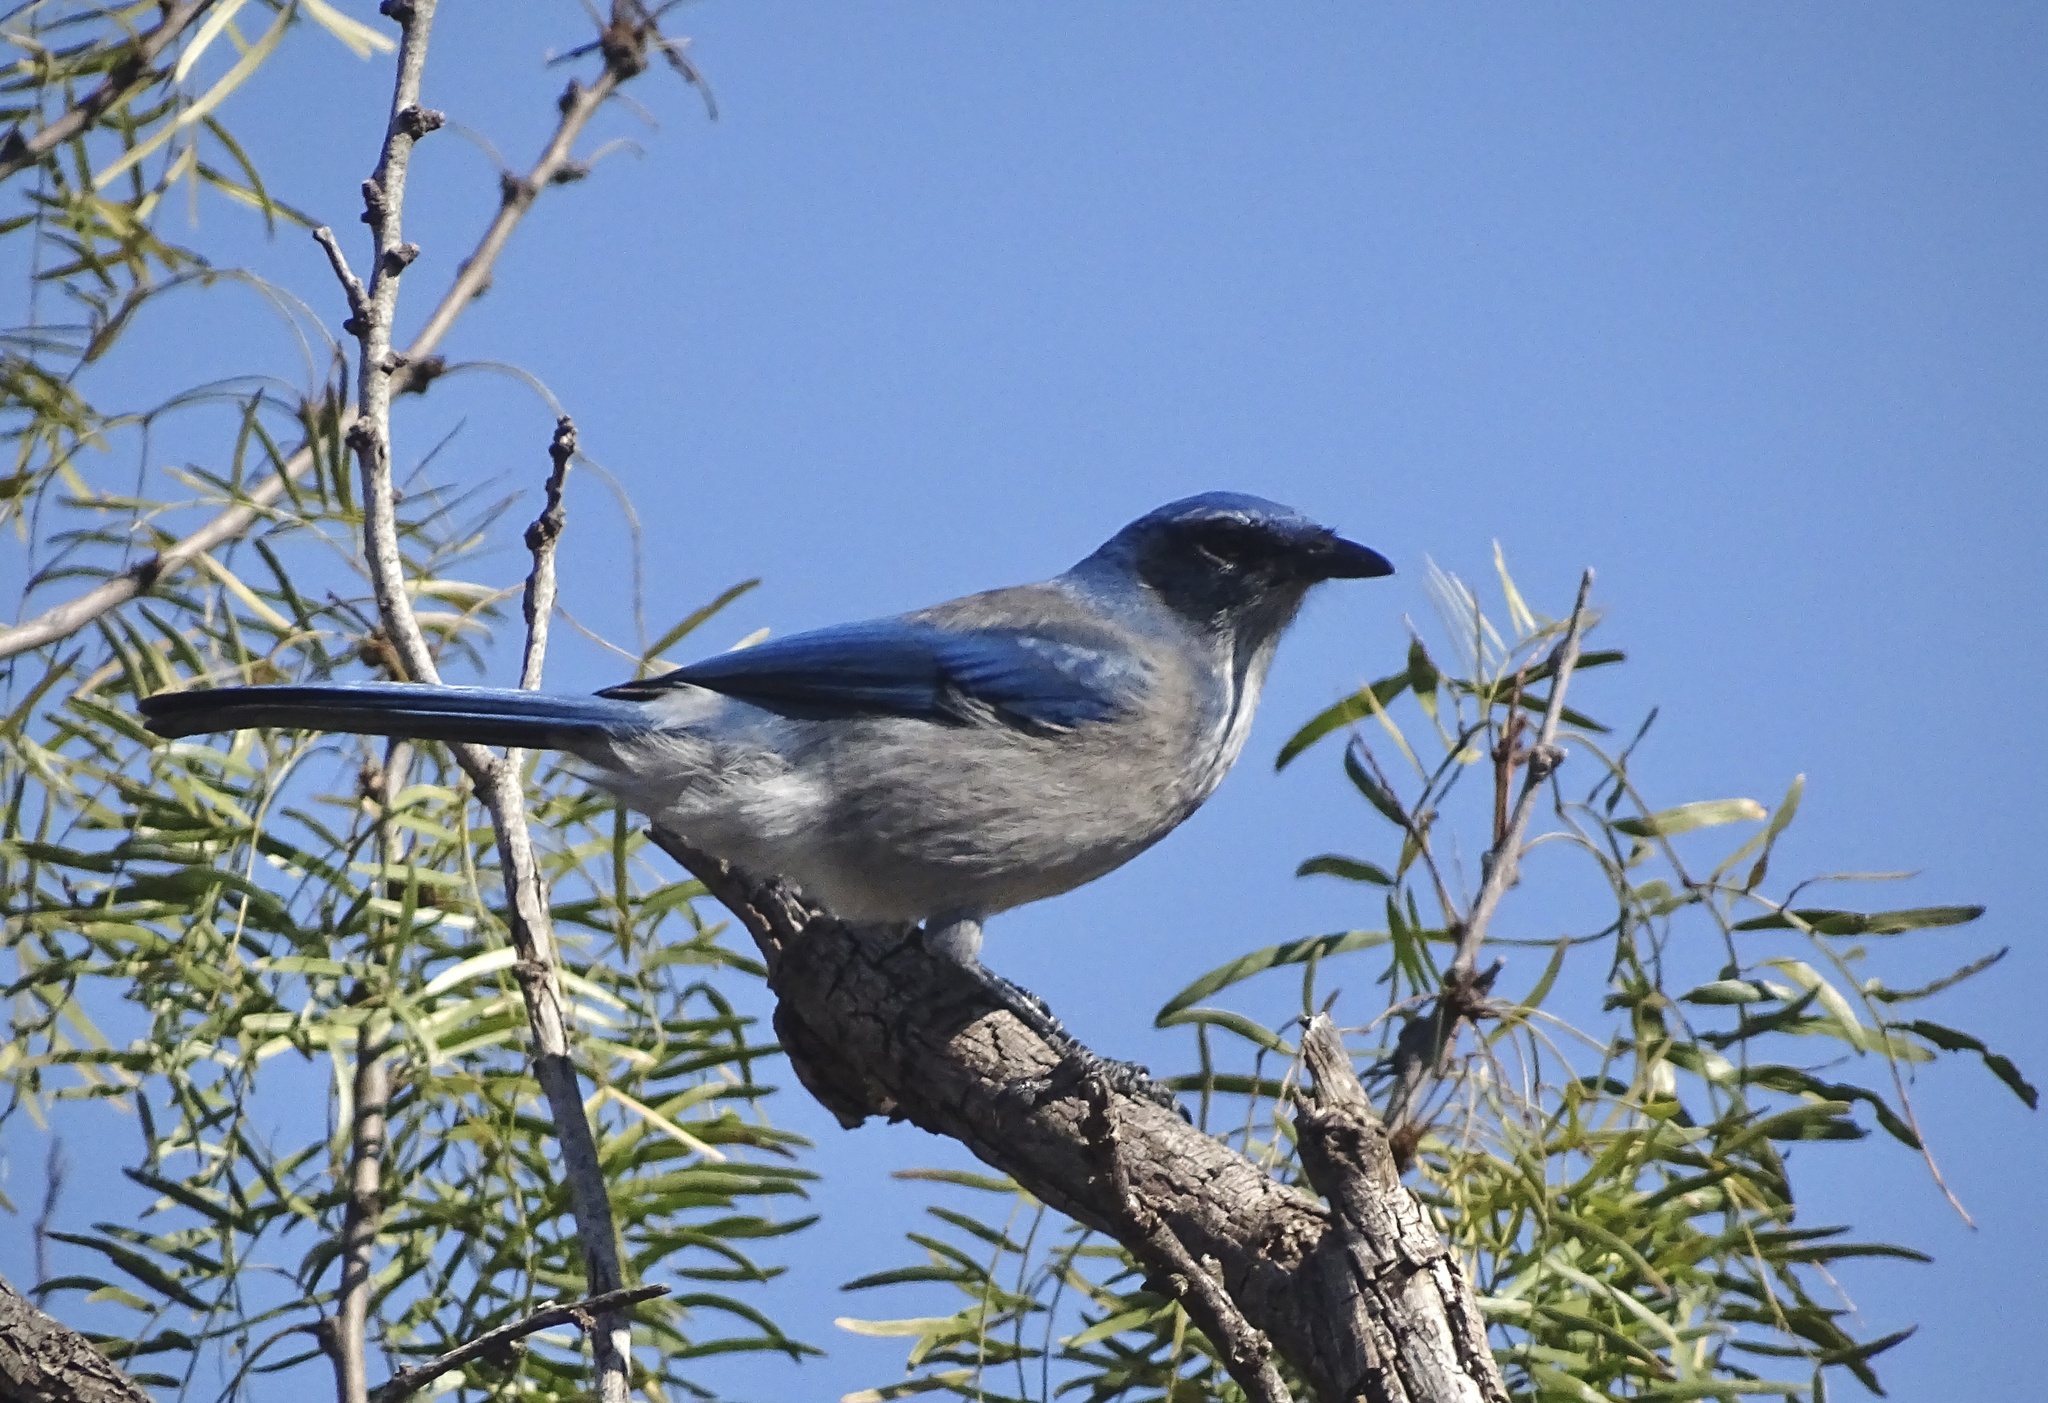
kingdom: Animalia
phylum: Chordata
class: Aves
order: Passeriformes
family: Corvidae
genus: Aphelocoma
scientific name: Aphelocoma woodhouseii
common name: Woodhouse's scrub-jay
